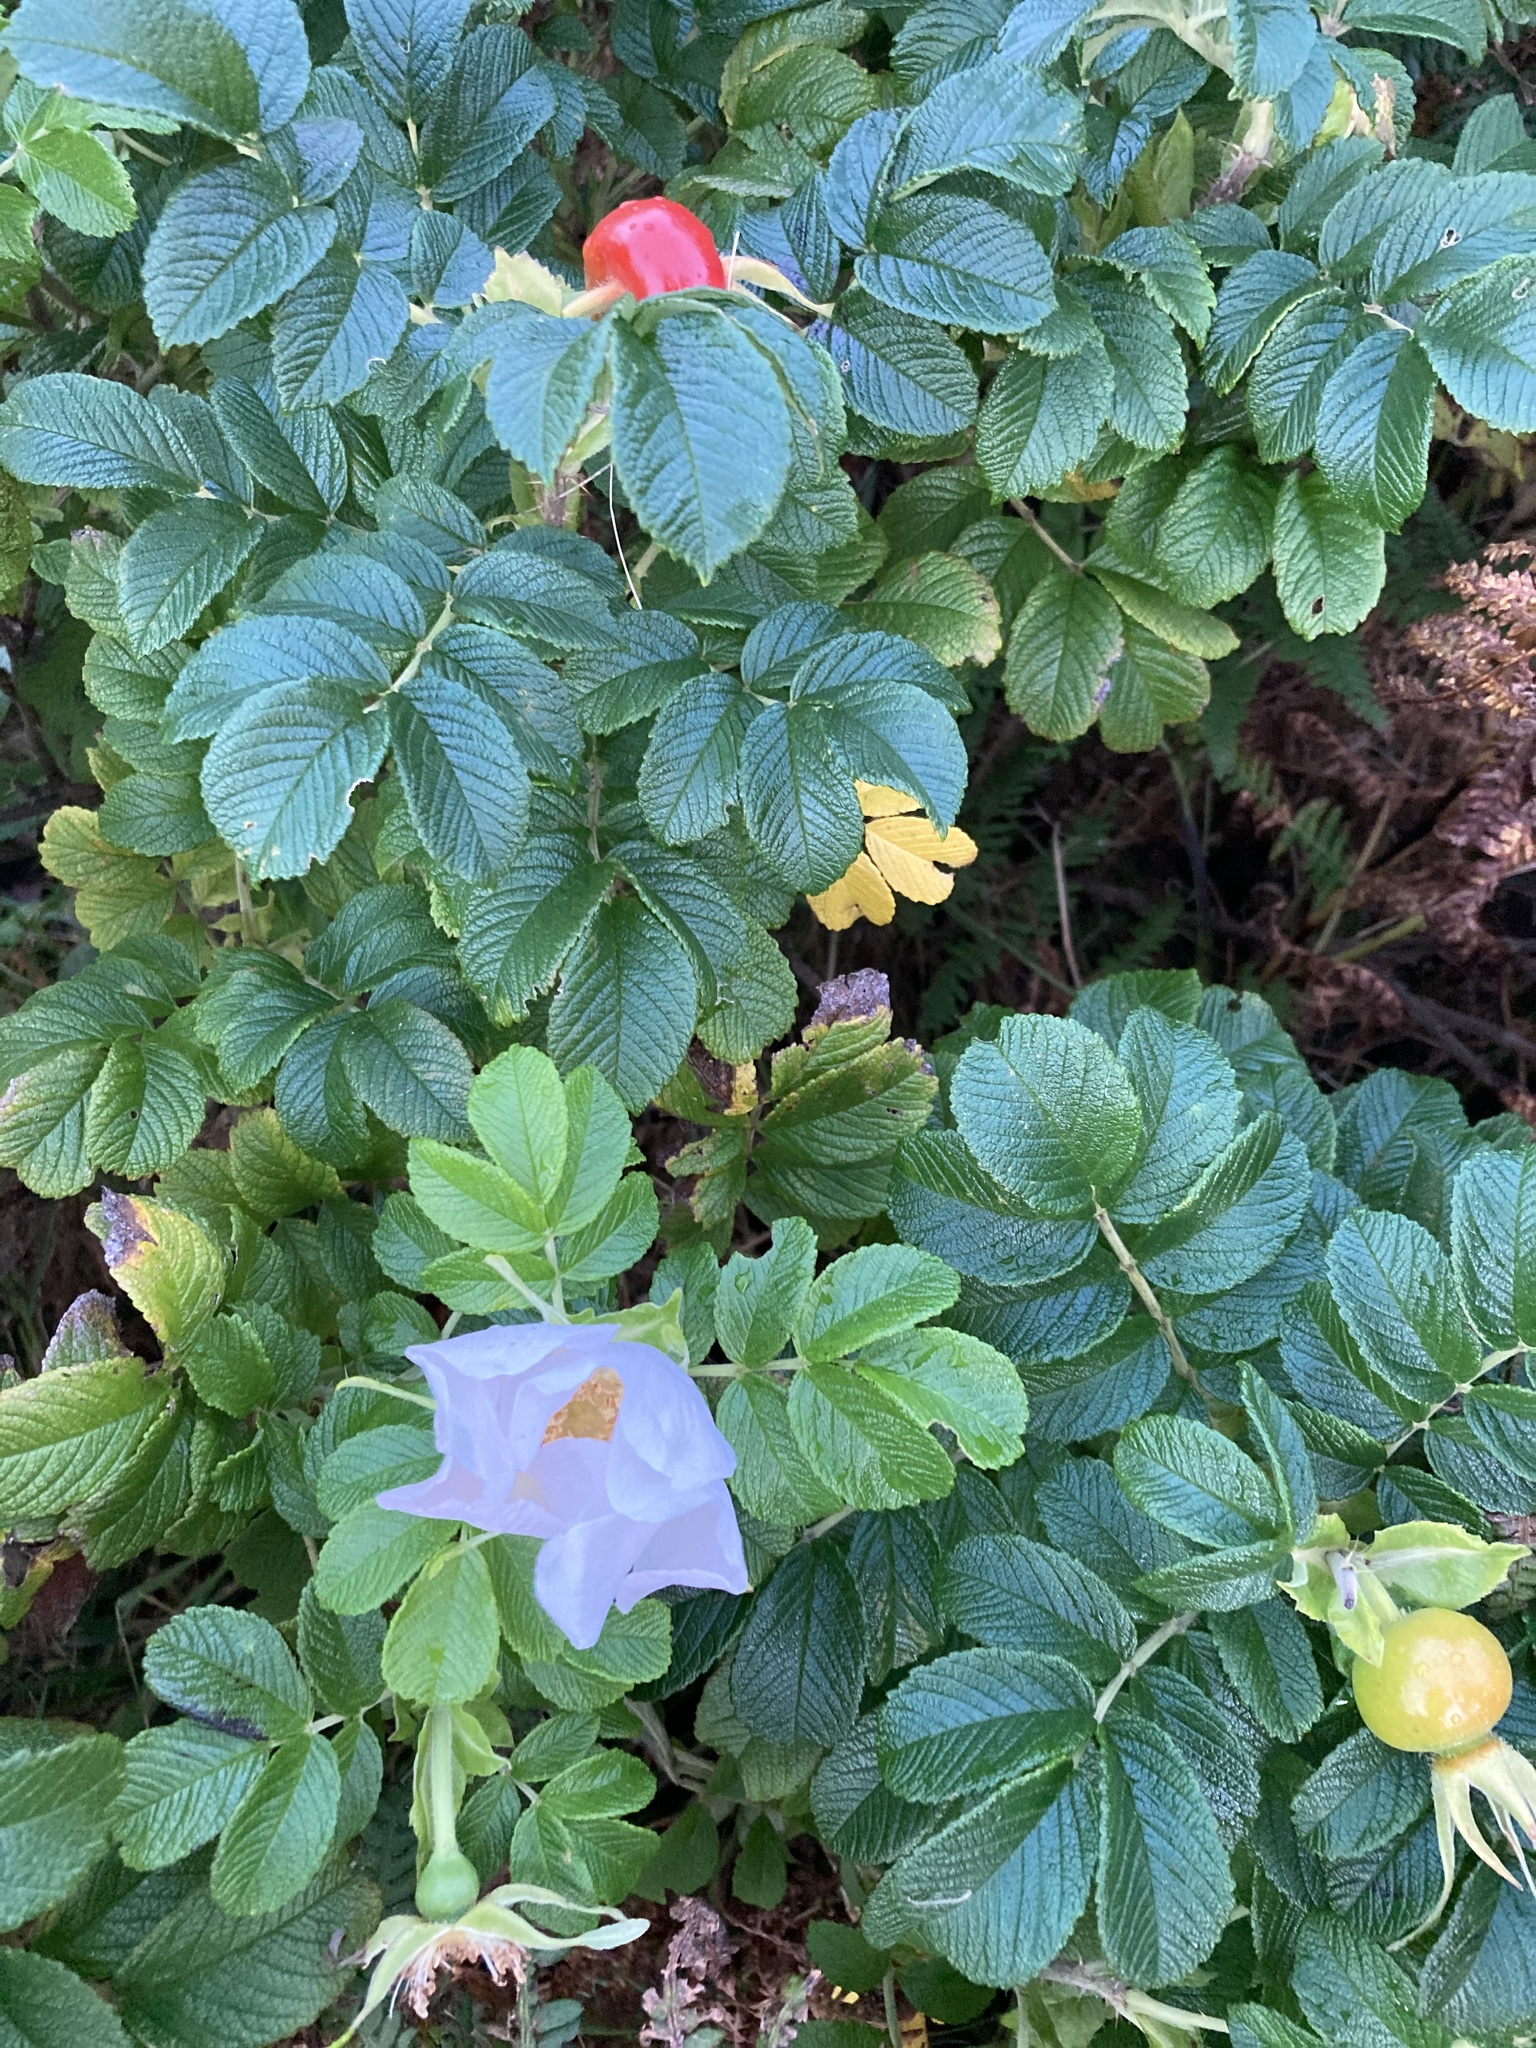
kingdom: Plantae
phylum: Tracheophyta
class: Magnoliopsida
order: Rosales
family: Rosaceae
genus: Rosa
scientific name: Rosa rugosa
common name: Japanese rose
